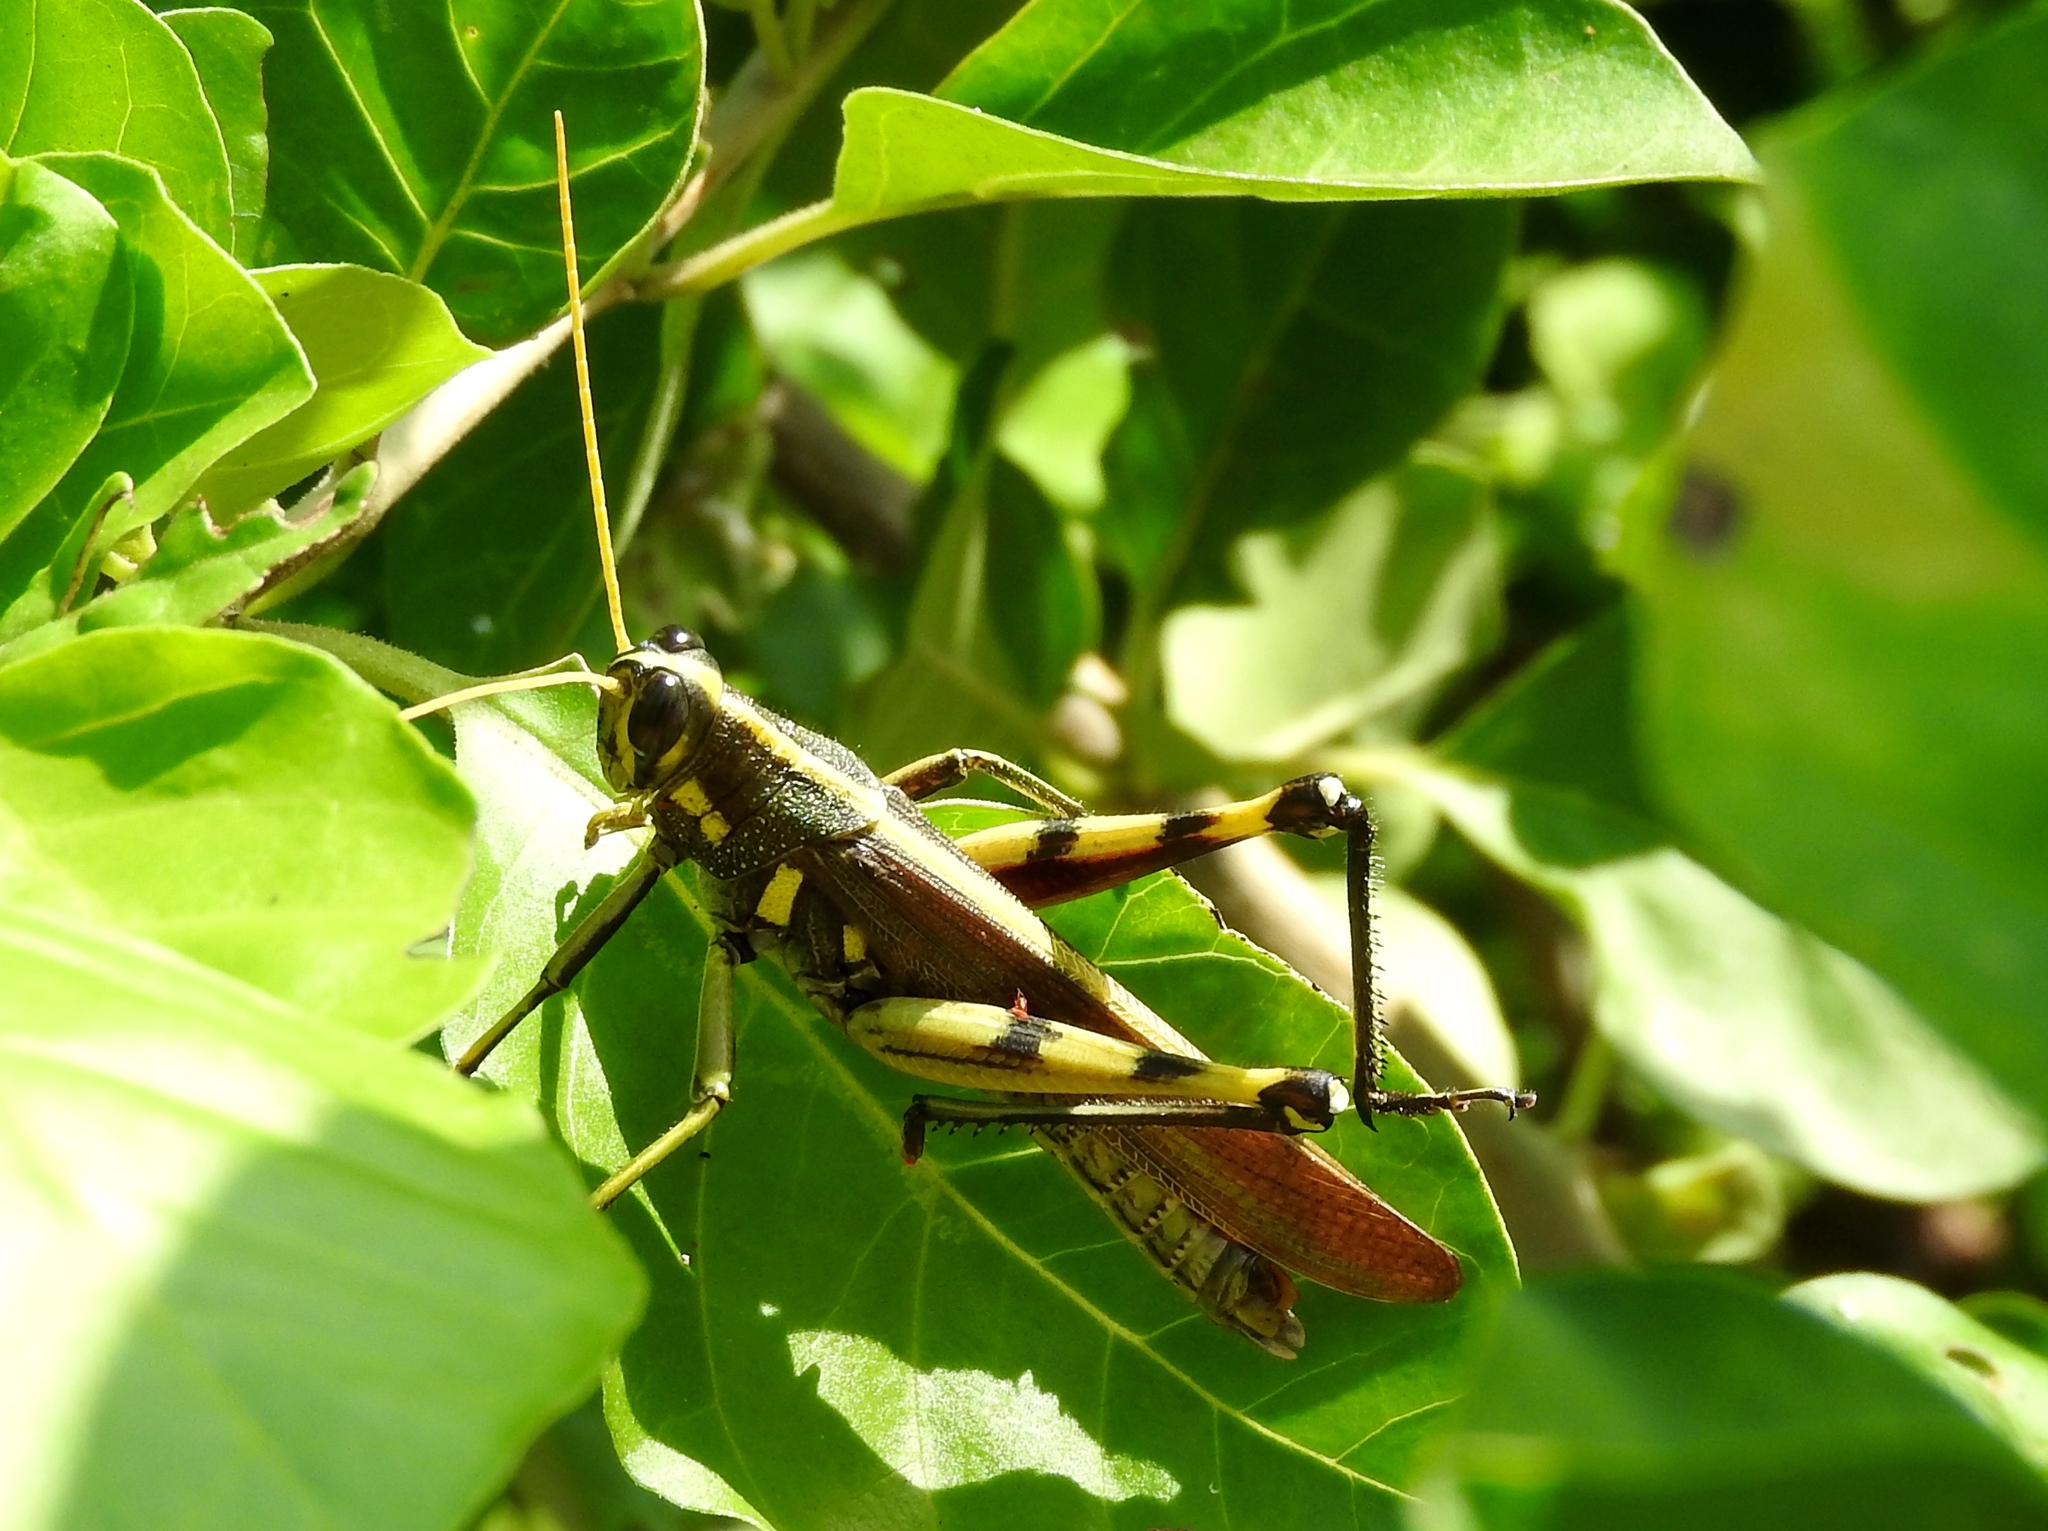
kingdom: Animalia
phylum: Arthropoda
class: Insecta
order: Orthoptera
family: Acrididae
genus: Schistocerca
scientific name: Schistocerca albolineata
